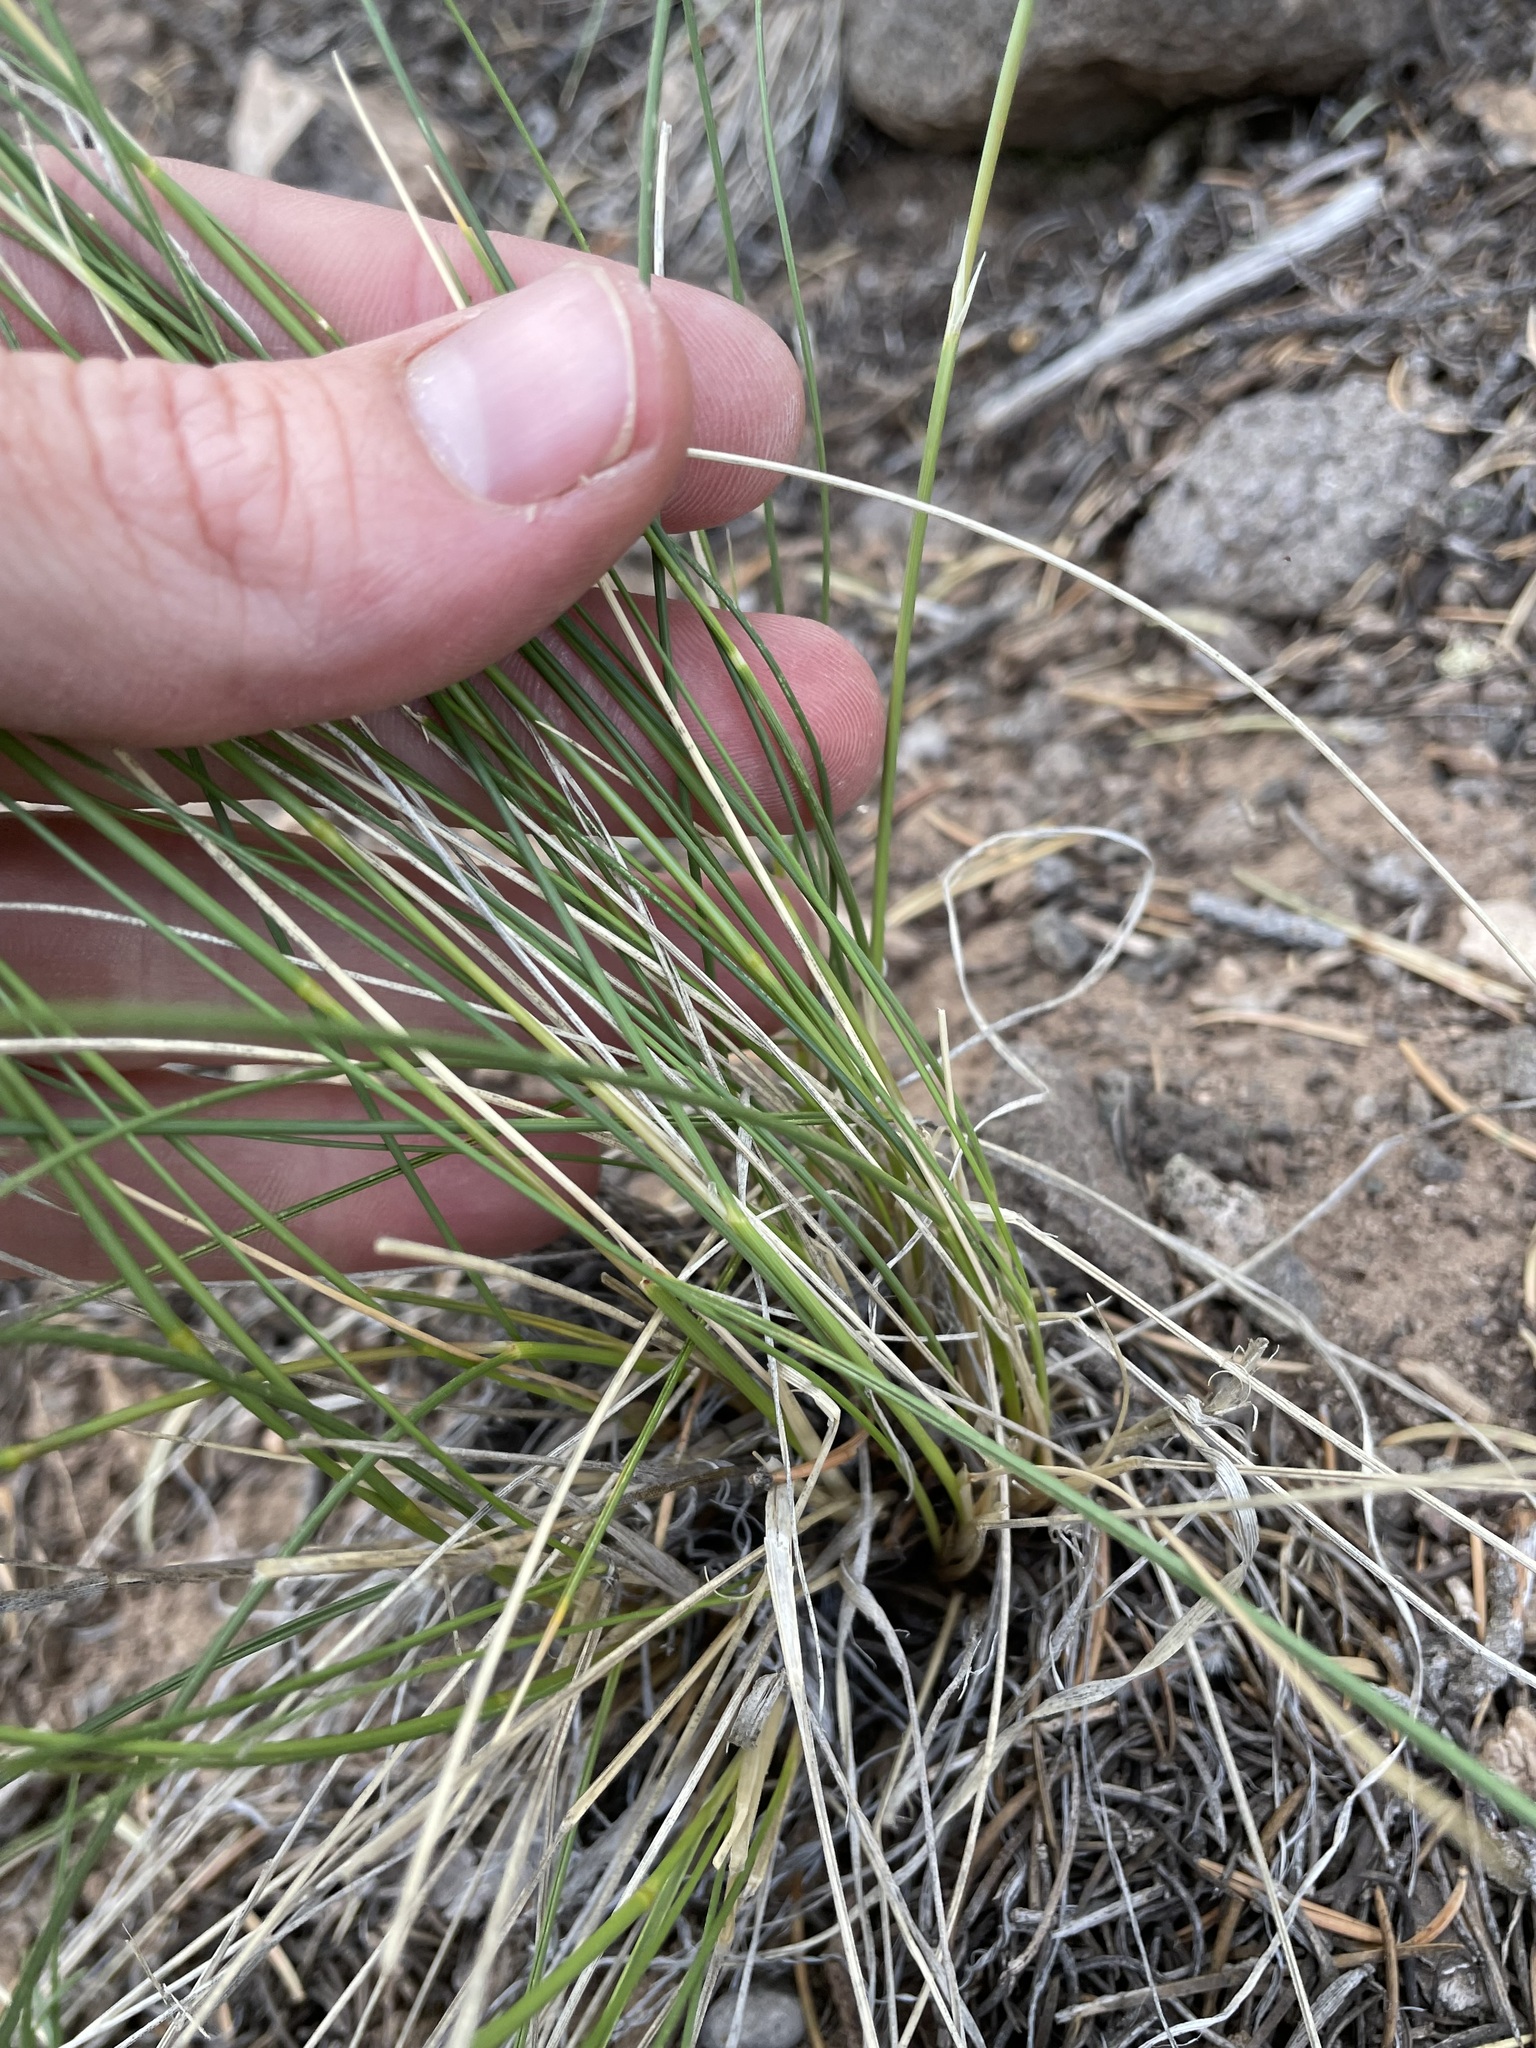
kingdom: Plantae
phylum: Tracheophyta
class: Liliopsida
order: Poales
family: Poaceae
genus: Eriocoma
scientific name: Eriocoma hymenoides
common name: Indian mountain ricegrass
